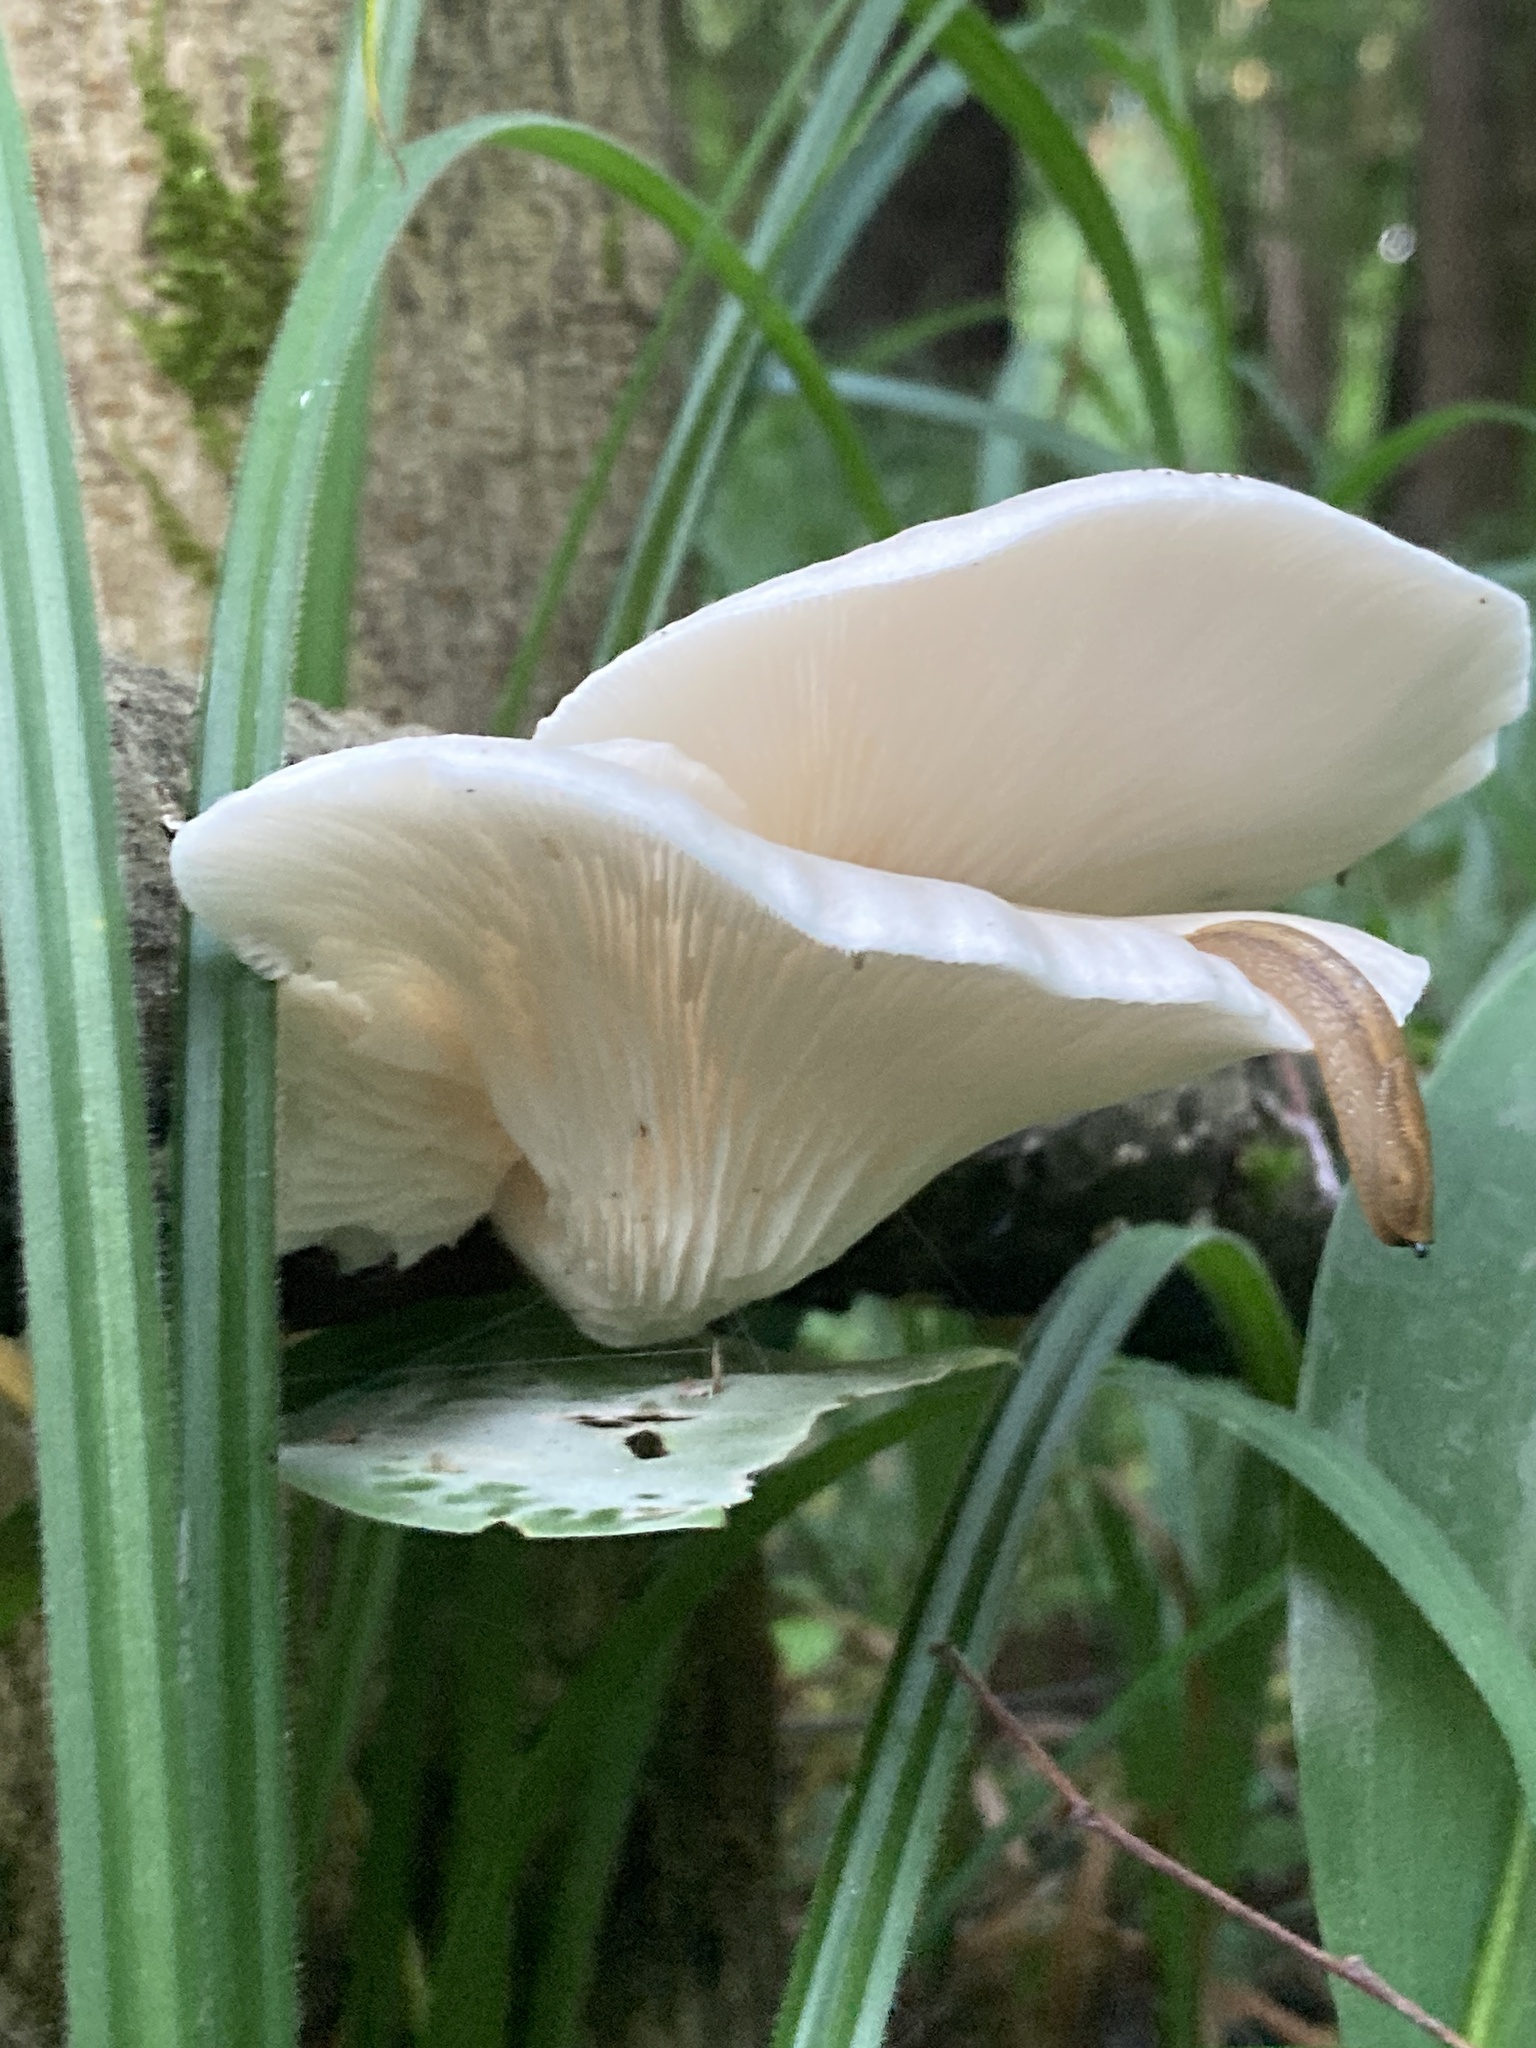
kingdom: Fungi
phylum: Basidiomycota
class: Agaricomycetes
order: Agaricales
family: Pleurotaceae
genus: Pleurotus
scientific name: Pleurotus pulmonarius
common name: Pale oyster
